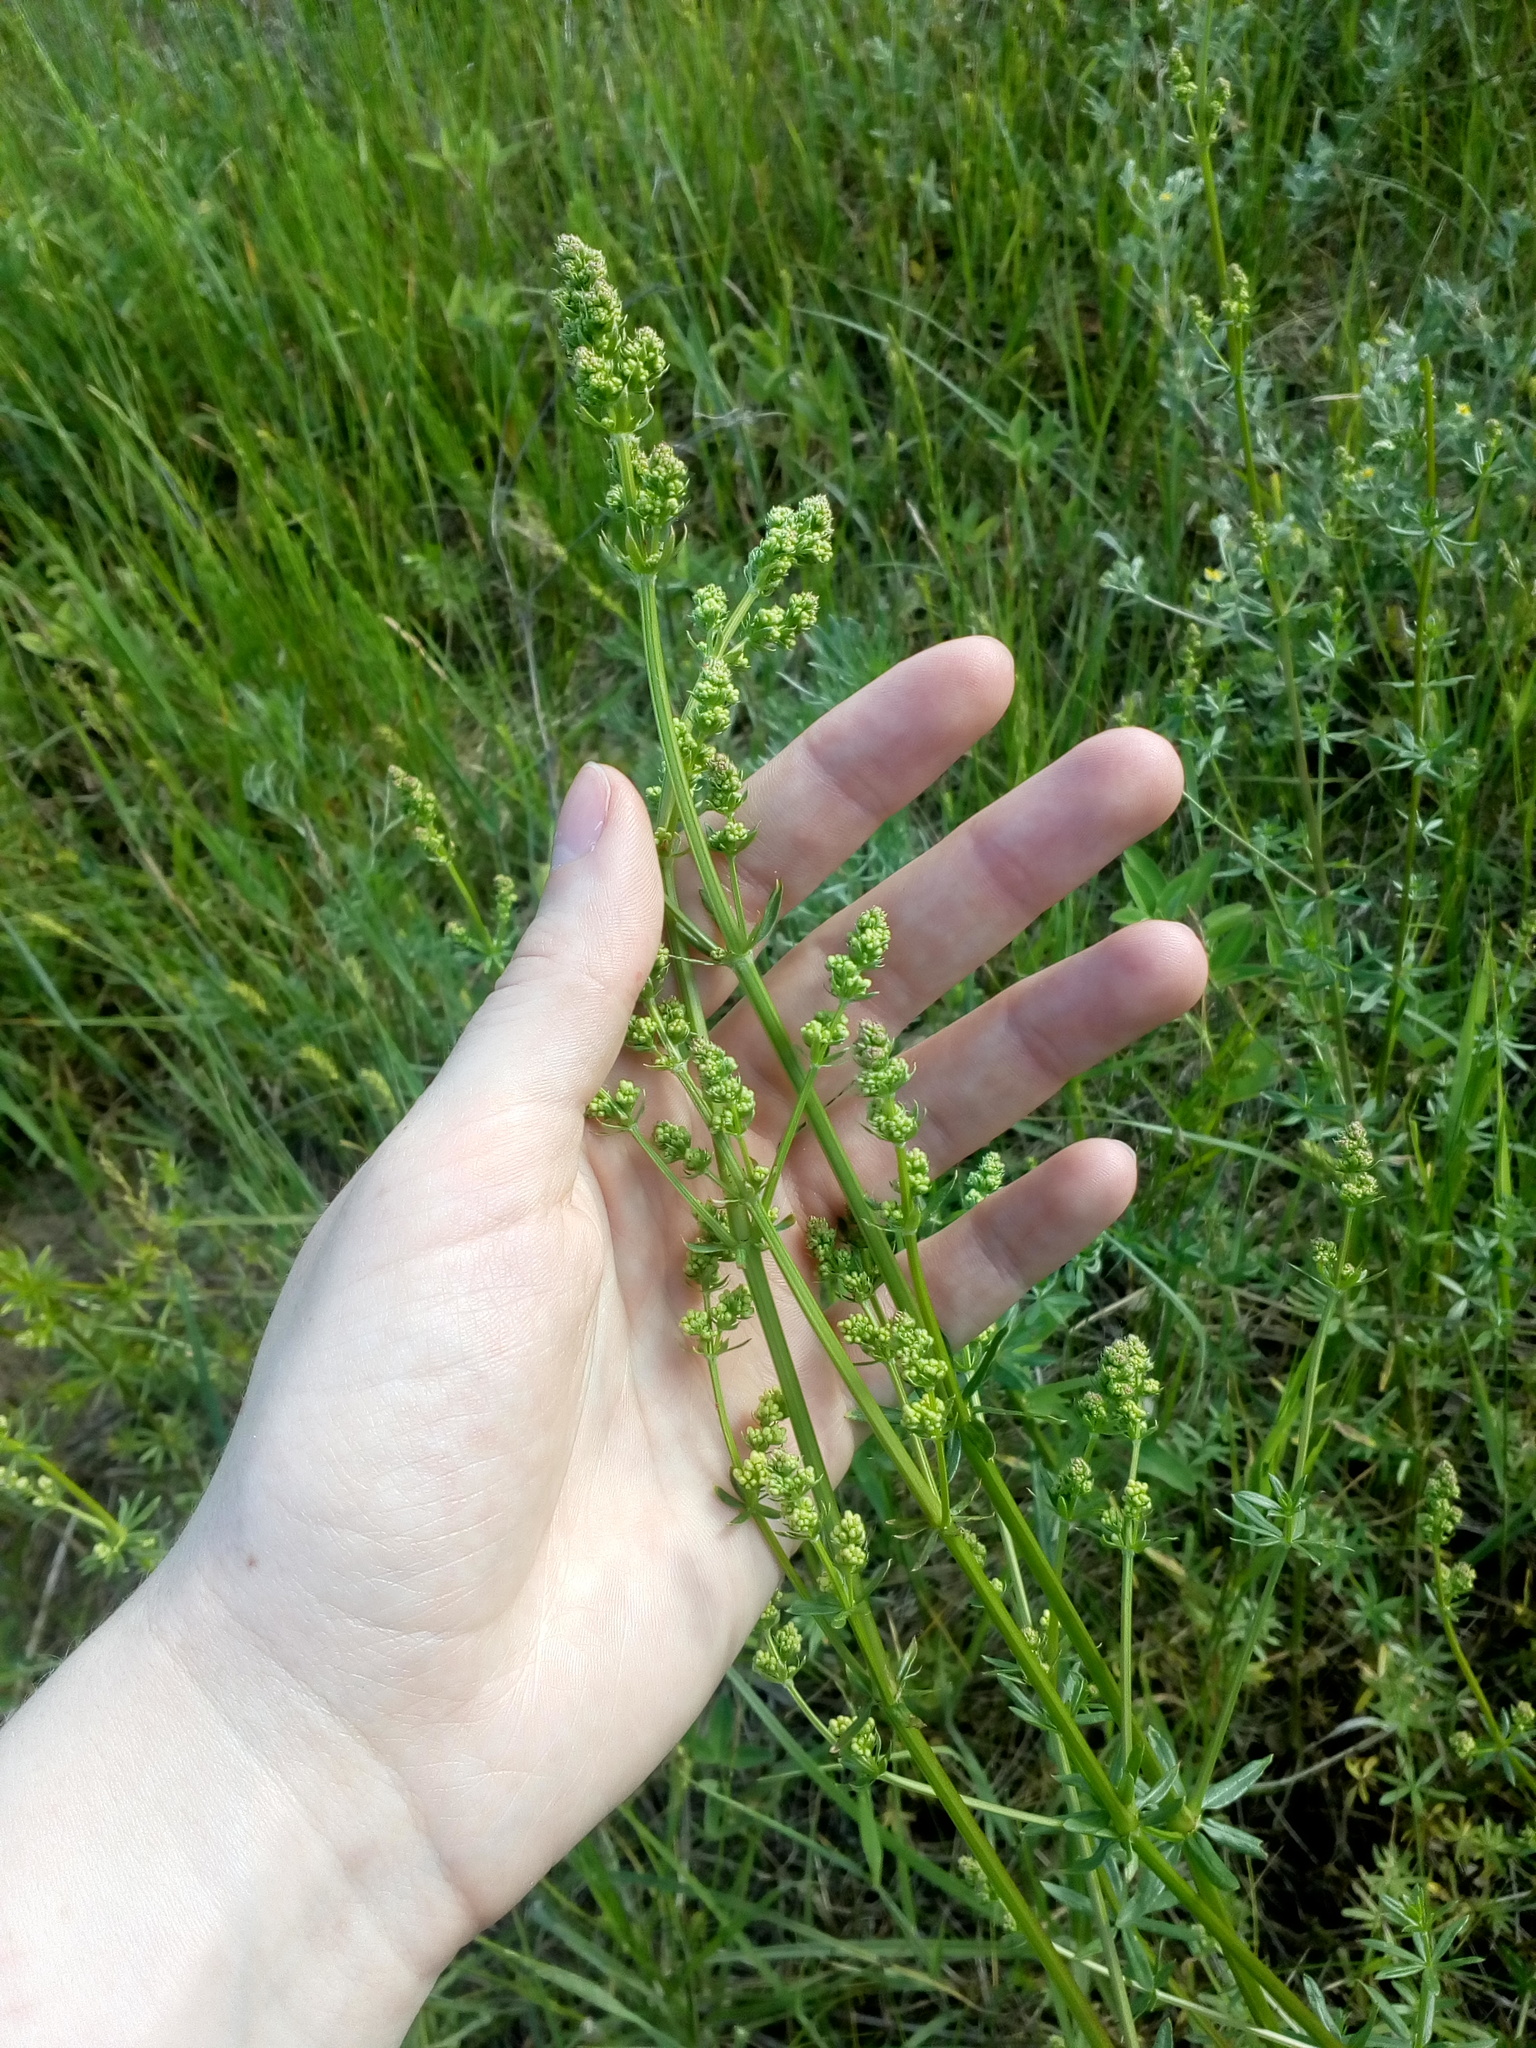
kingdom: Plantae
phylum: Tracheophyta
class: Magnoliopsida
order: Gentianales
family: Rubiaceae
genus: Galium
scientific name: Galium verum
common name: Lady's bedstraw
